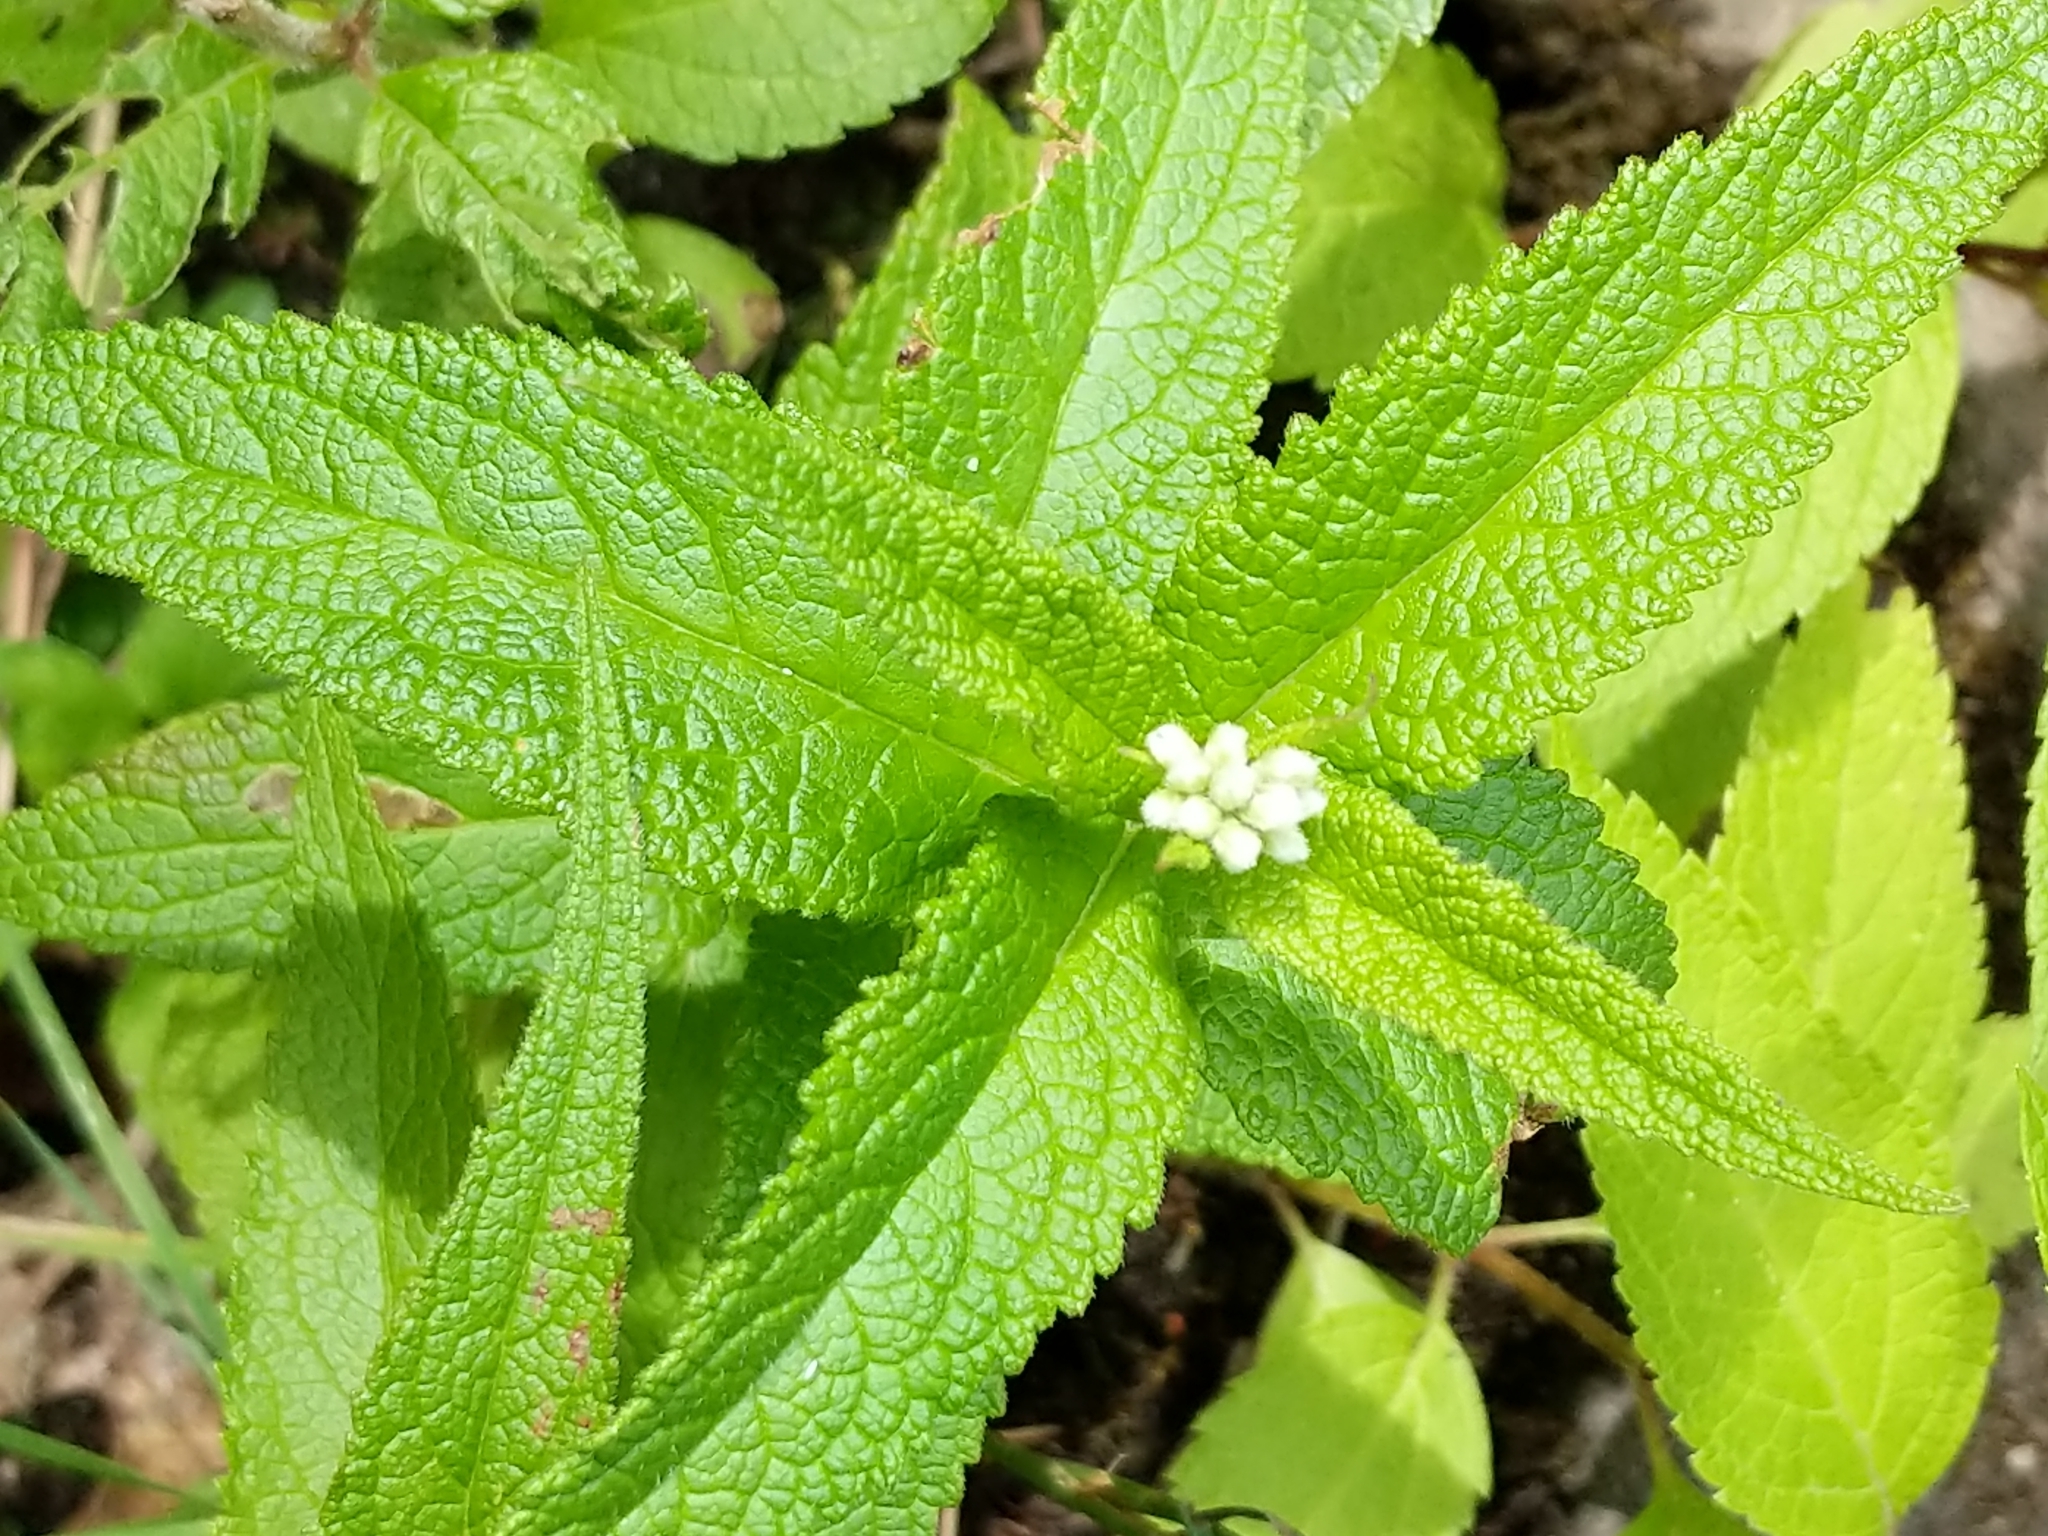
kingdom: Plantae
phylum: Tracheophyta
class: Magnoliopsida
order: Asterales
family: Asteraceae
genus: Eupatorium
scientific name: Eupatorium perfoliatum
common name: Boneset
